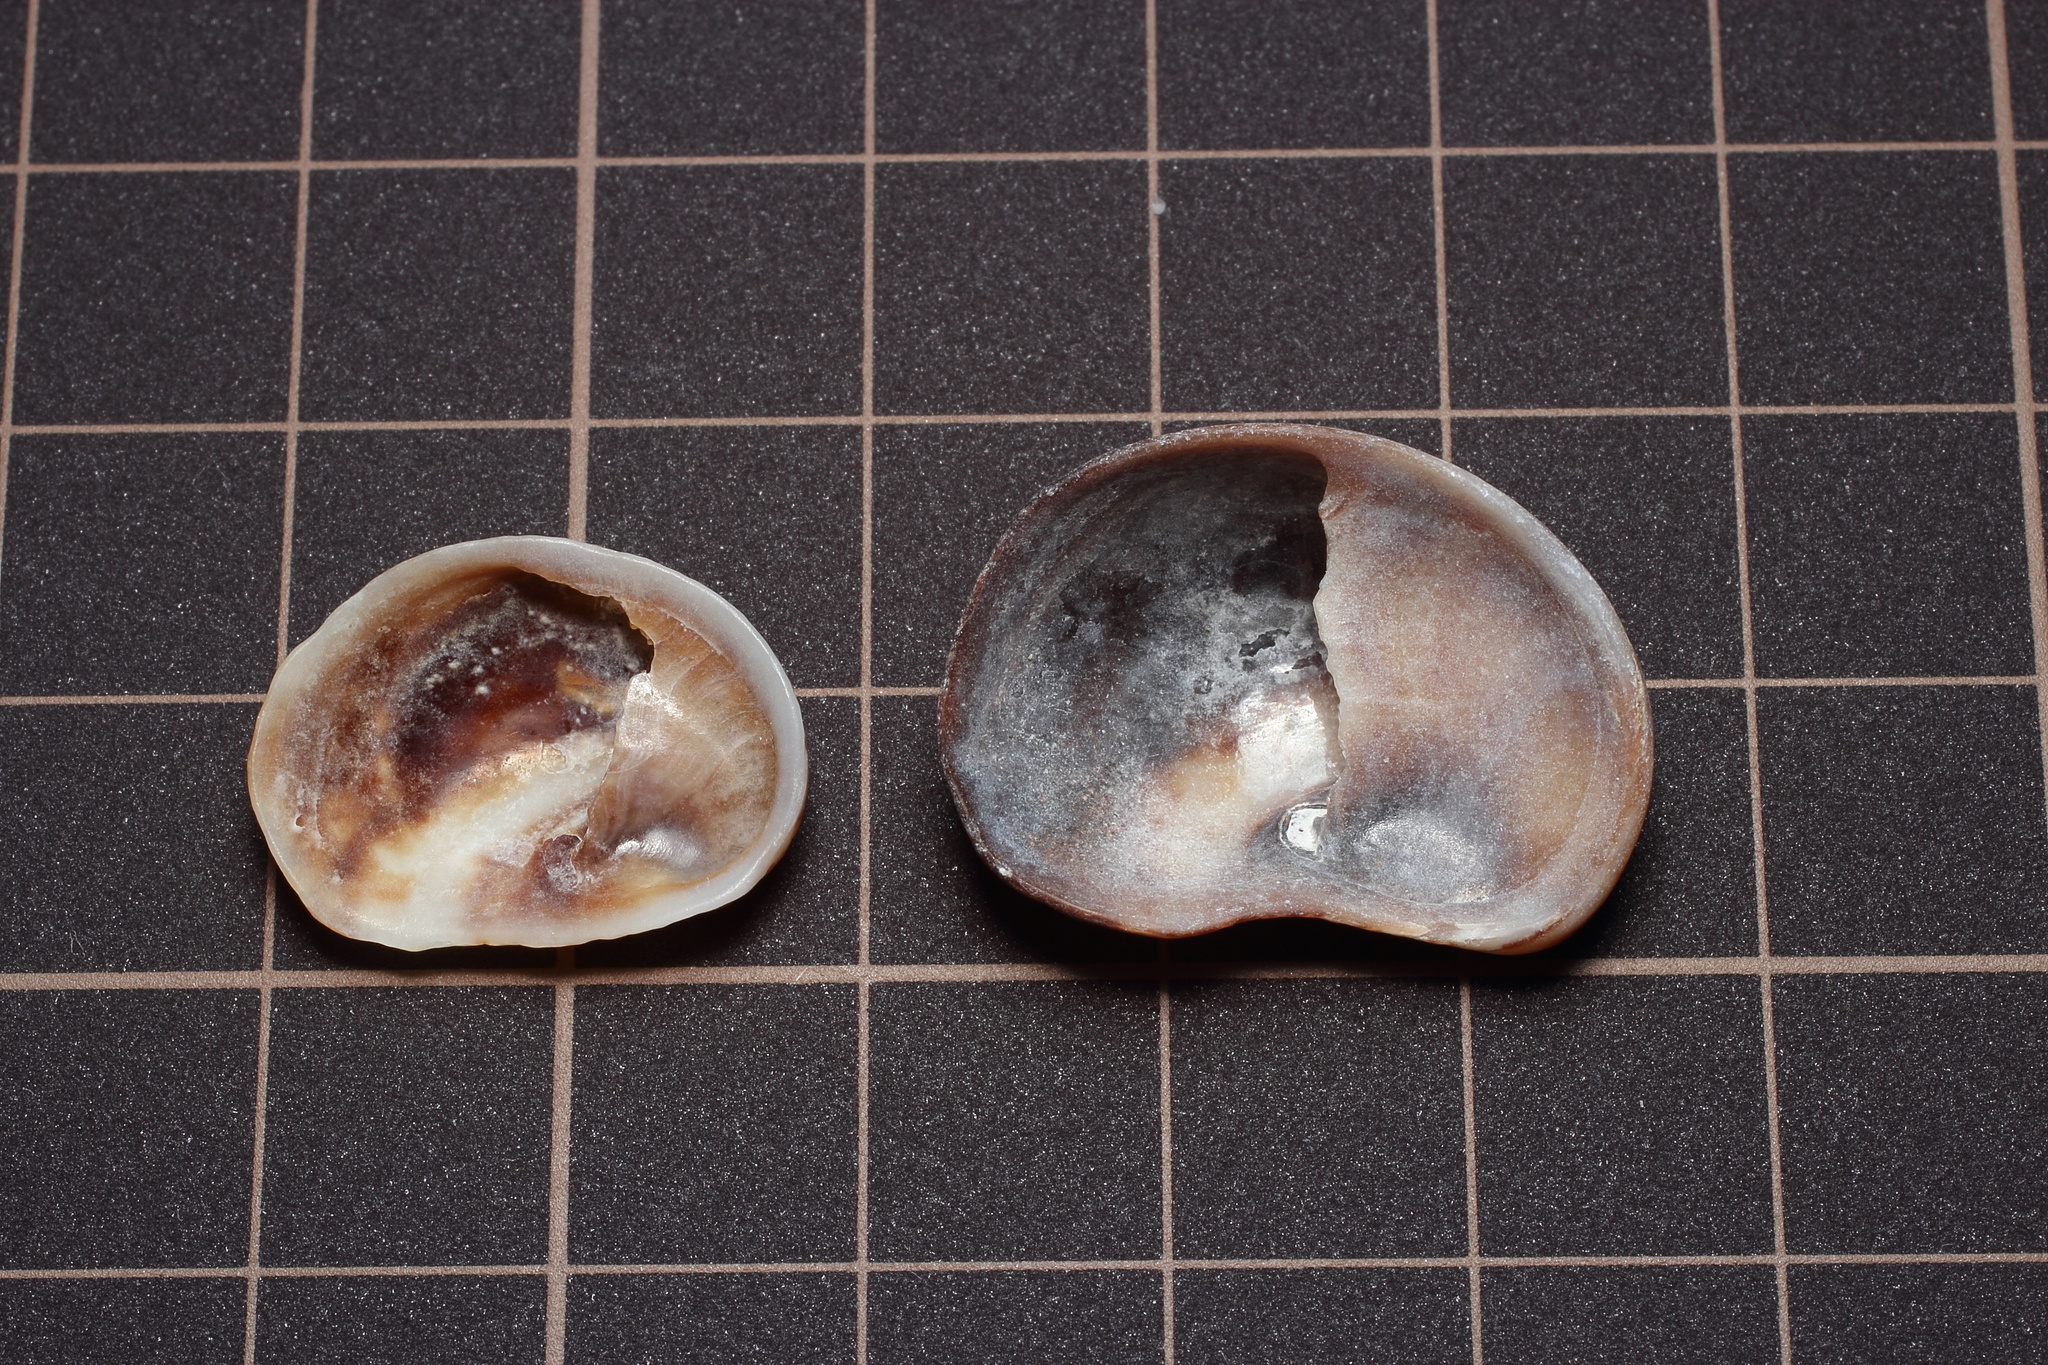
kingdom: Animalia
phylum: Mollusca
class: Gastropoda
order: Littorinimorpha
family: Calyptraeidae
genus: Bostrycapulus
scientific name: Bostrycapulus gravispinosus
